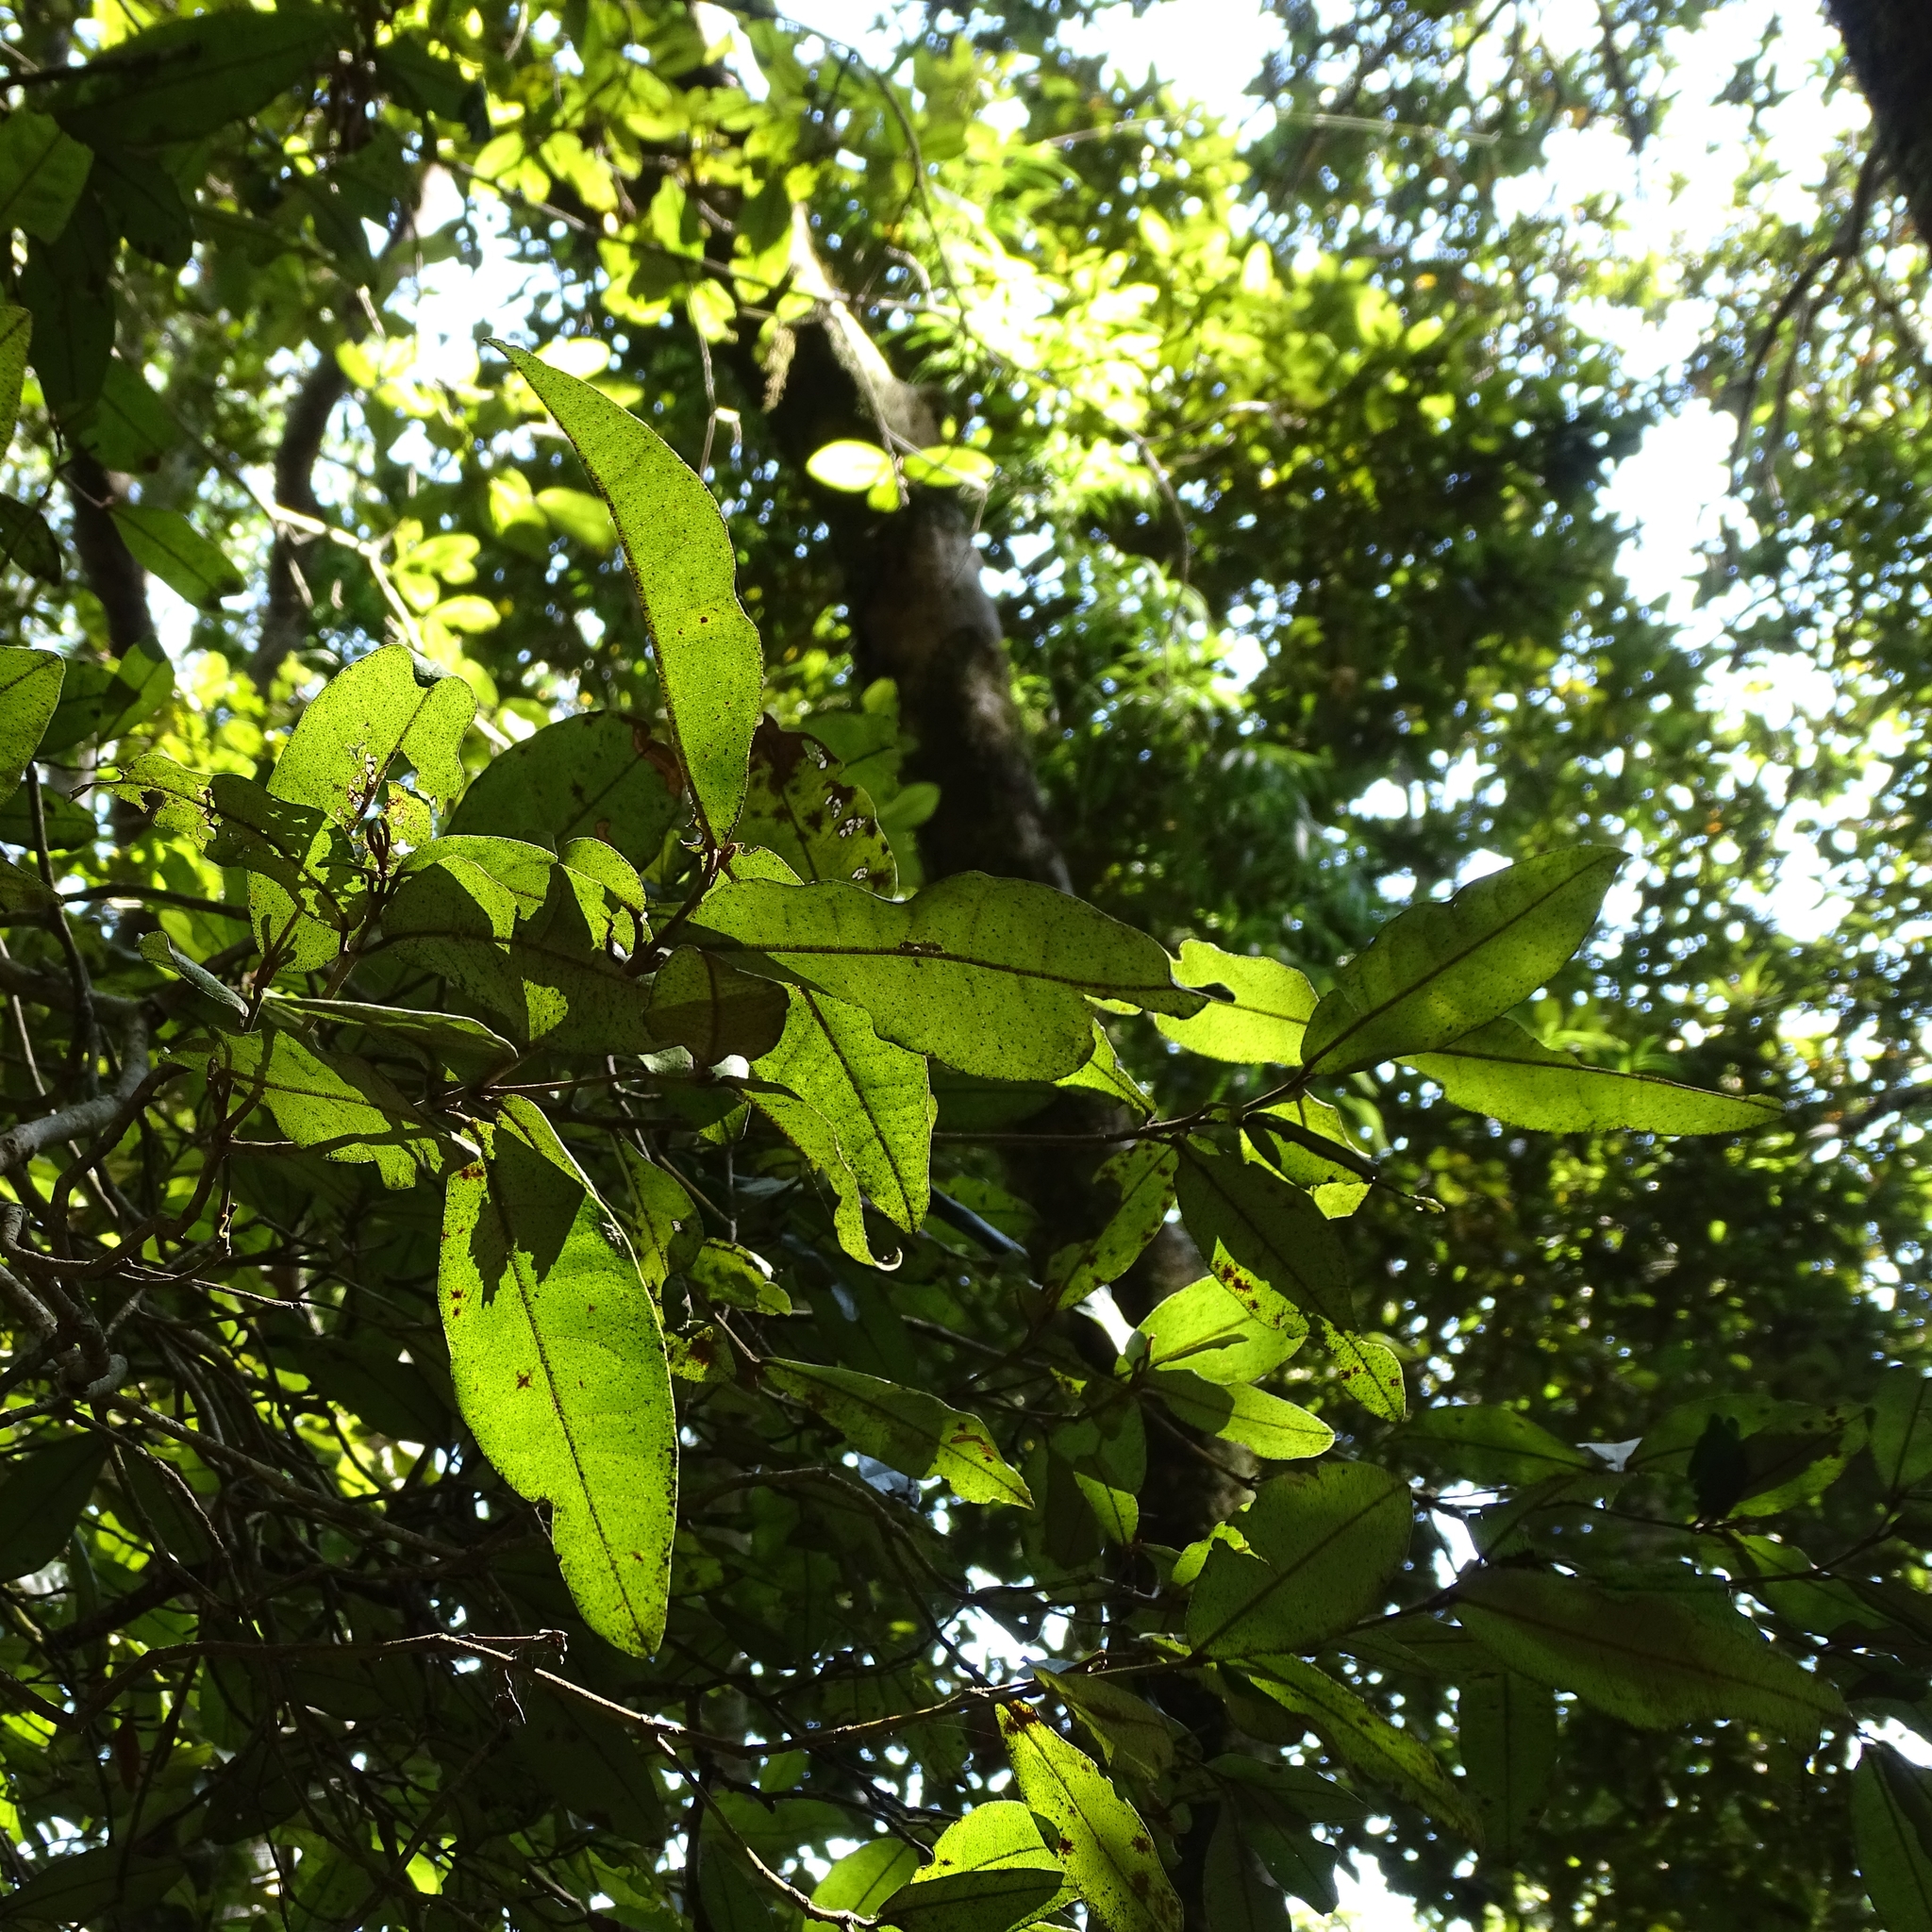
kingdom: Plantae
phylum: Tracheophyta
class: Magnoliopsida
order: Berberidopsidales
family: Aextoxicaceae
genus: Aextoxicon
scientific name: Aextoxicon punctatum
